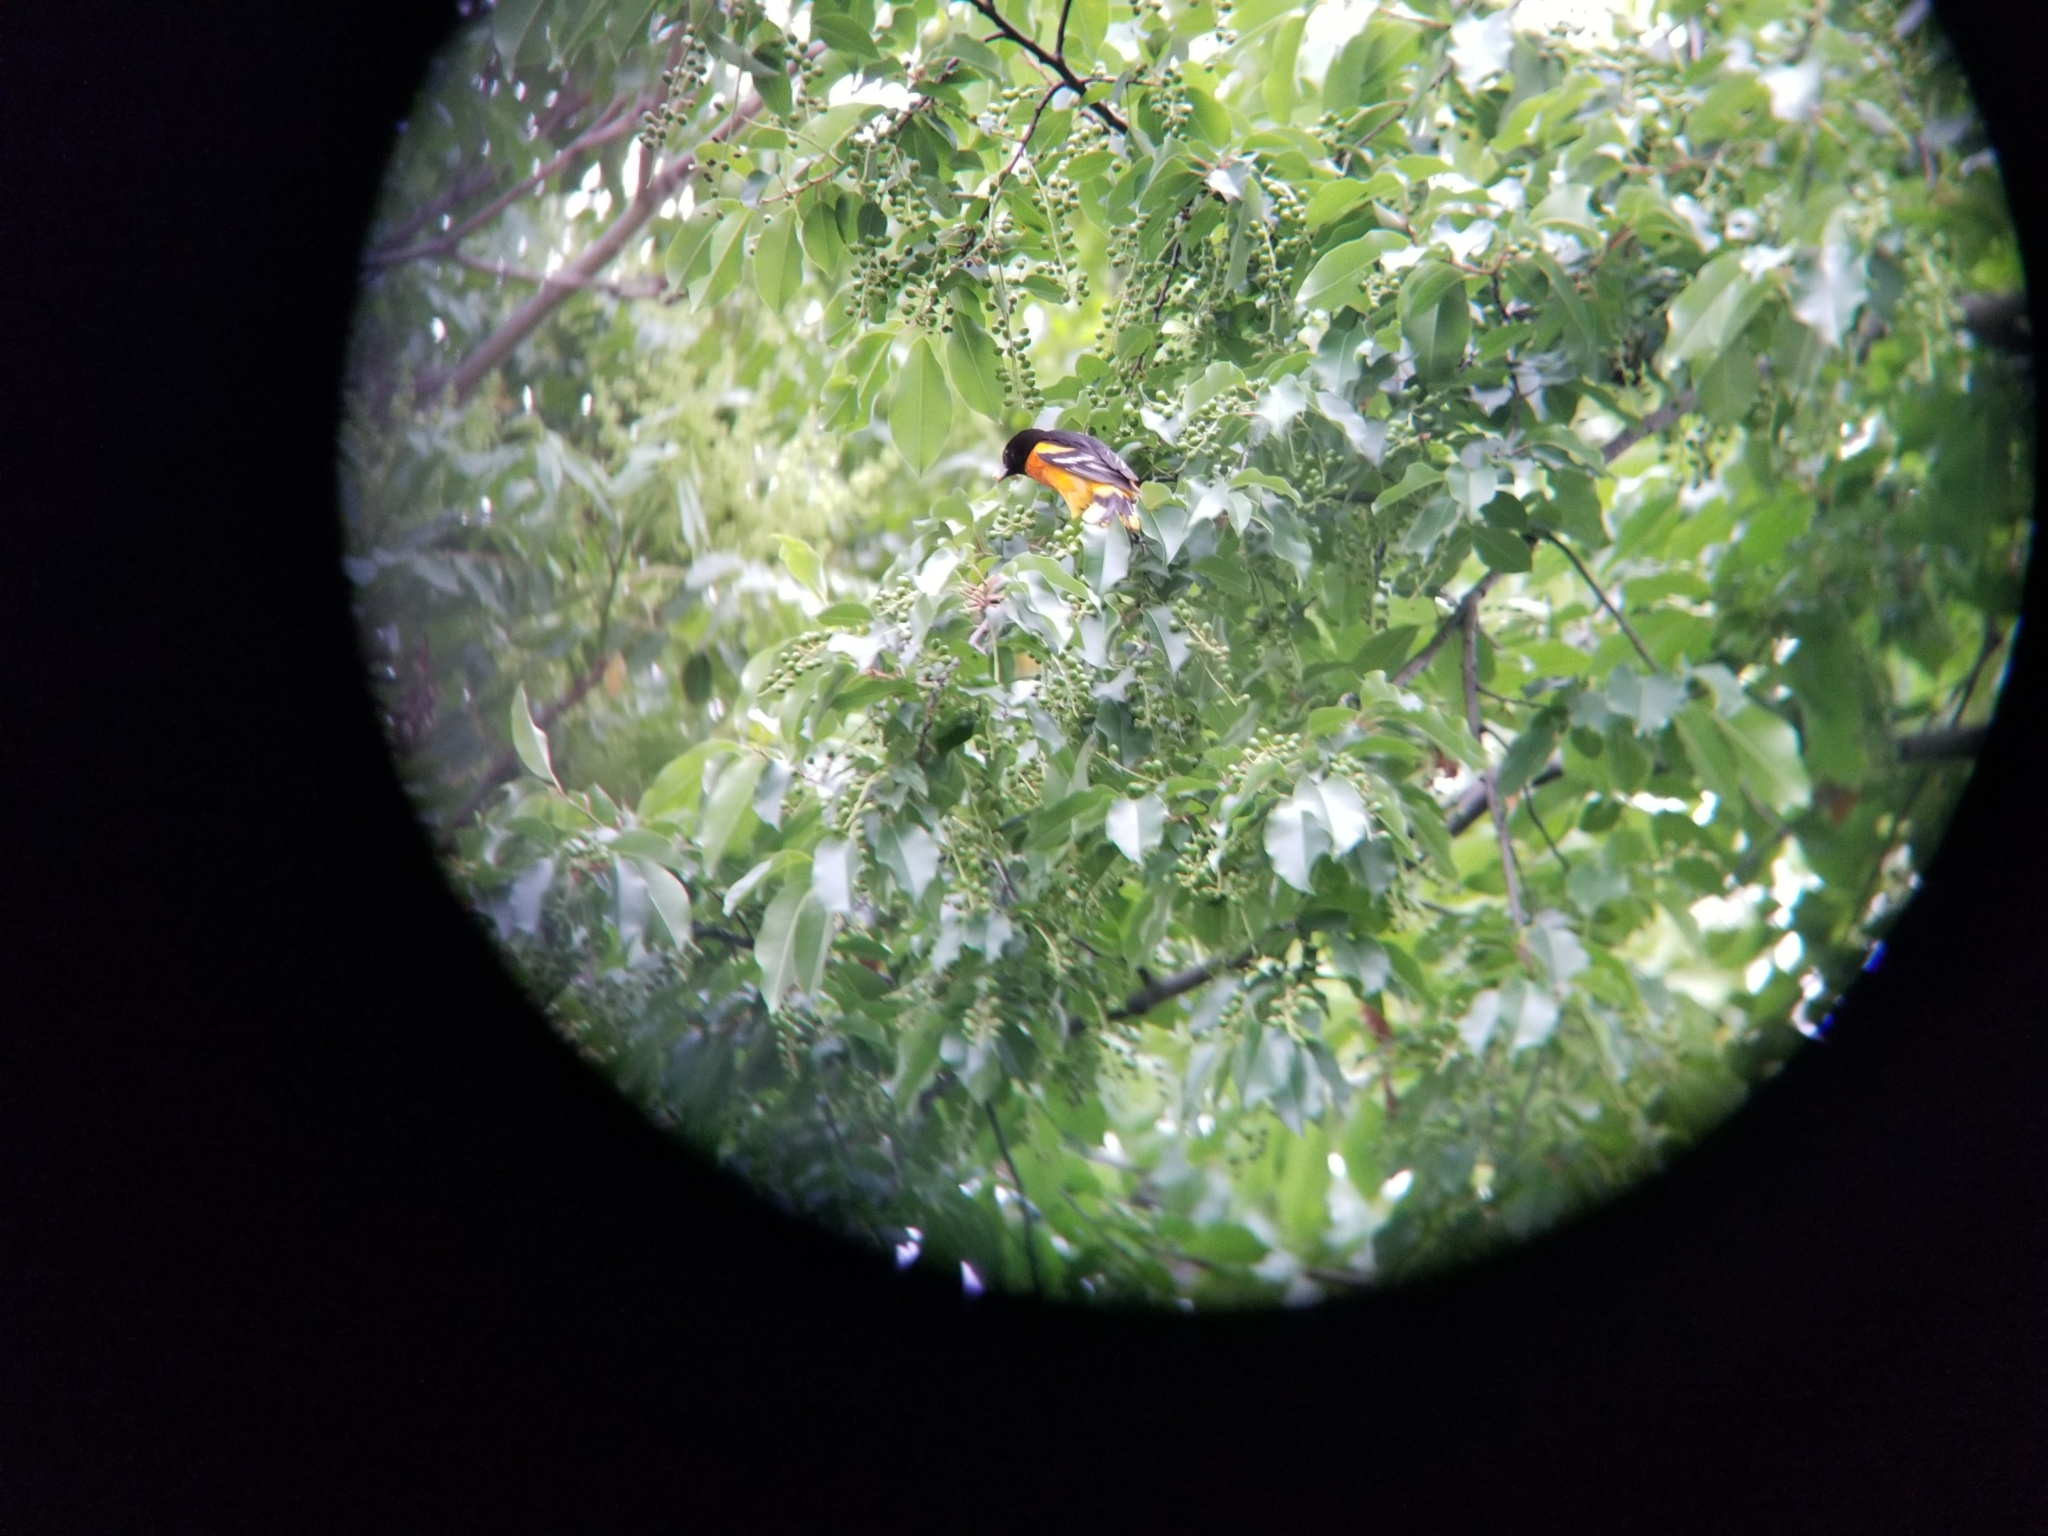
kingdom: Animalia
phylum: Chordata
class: Aves
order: Passeriformes
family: Icteridae
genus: Icterus
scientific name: Icterus galbula
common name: Baltimore oriole
